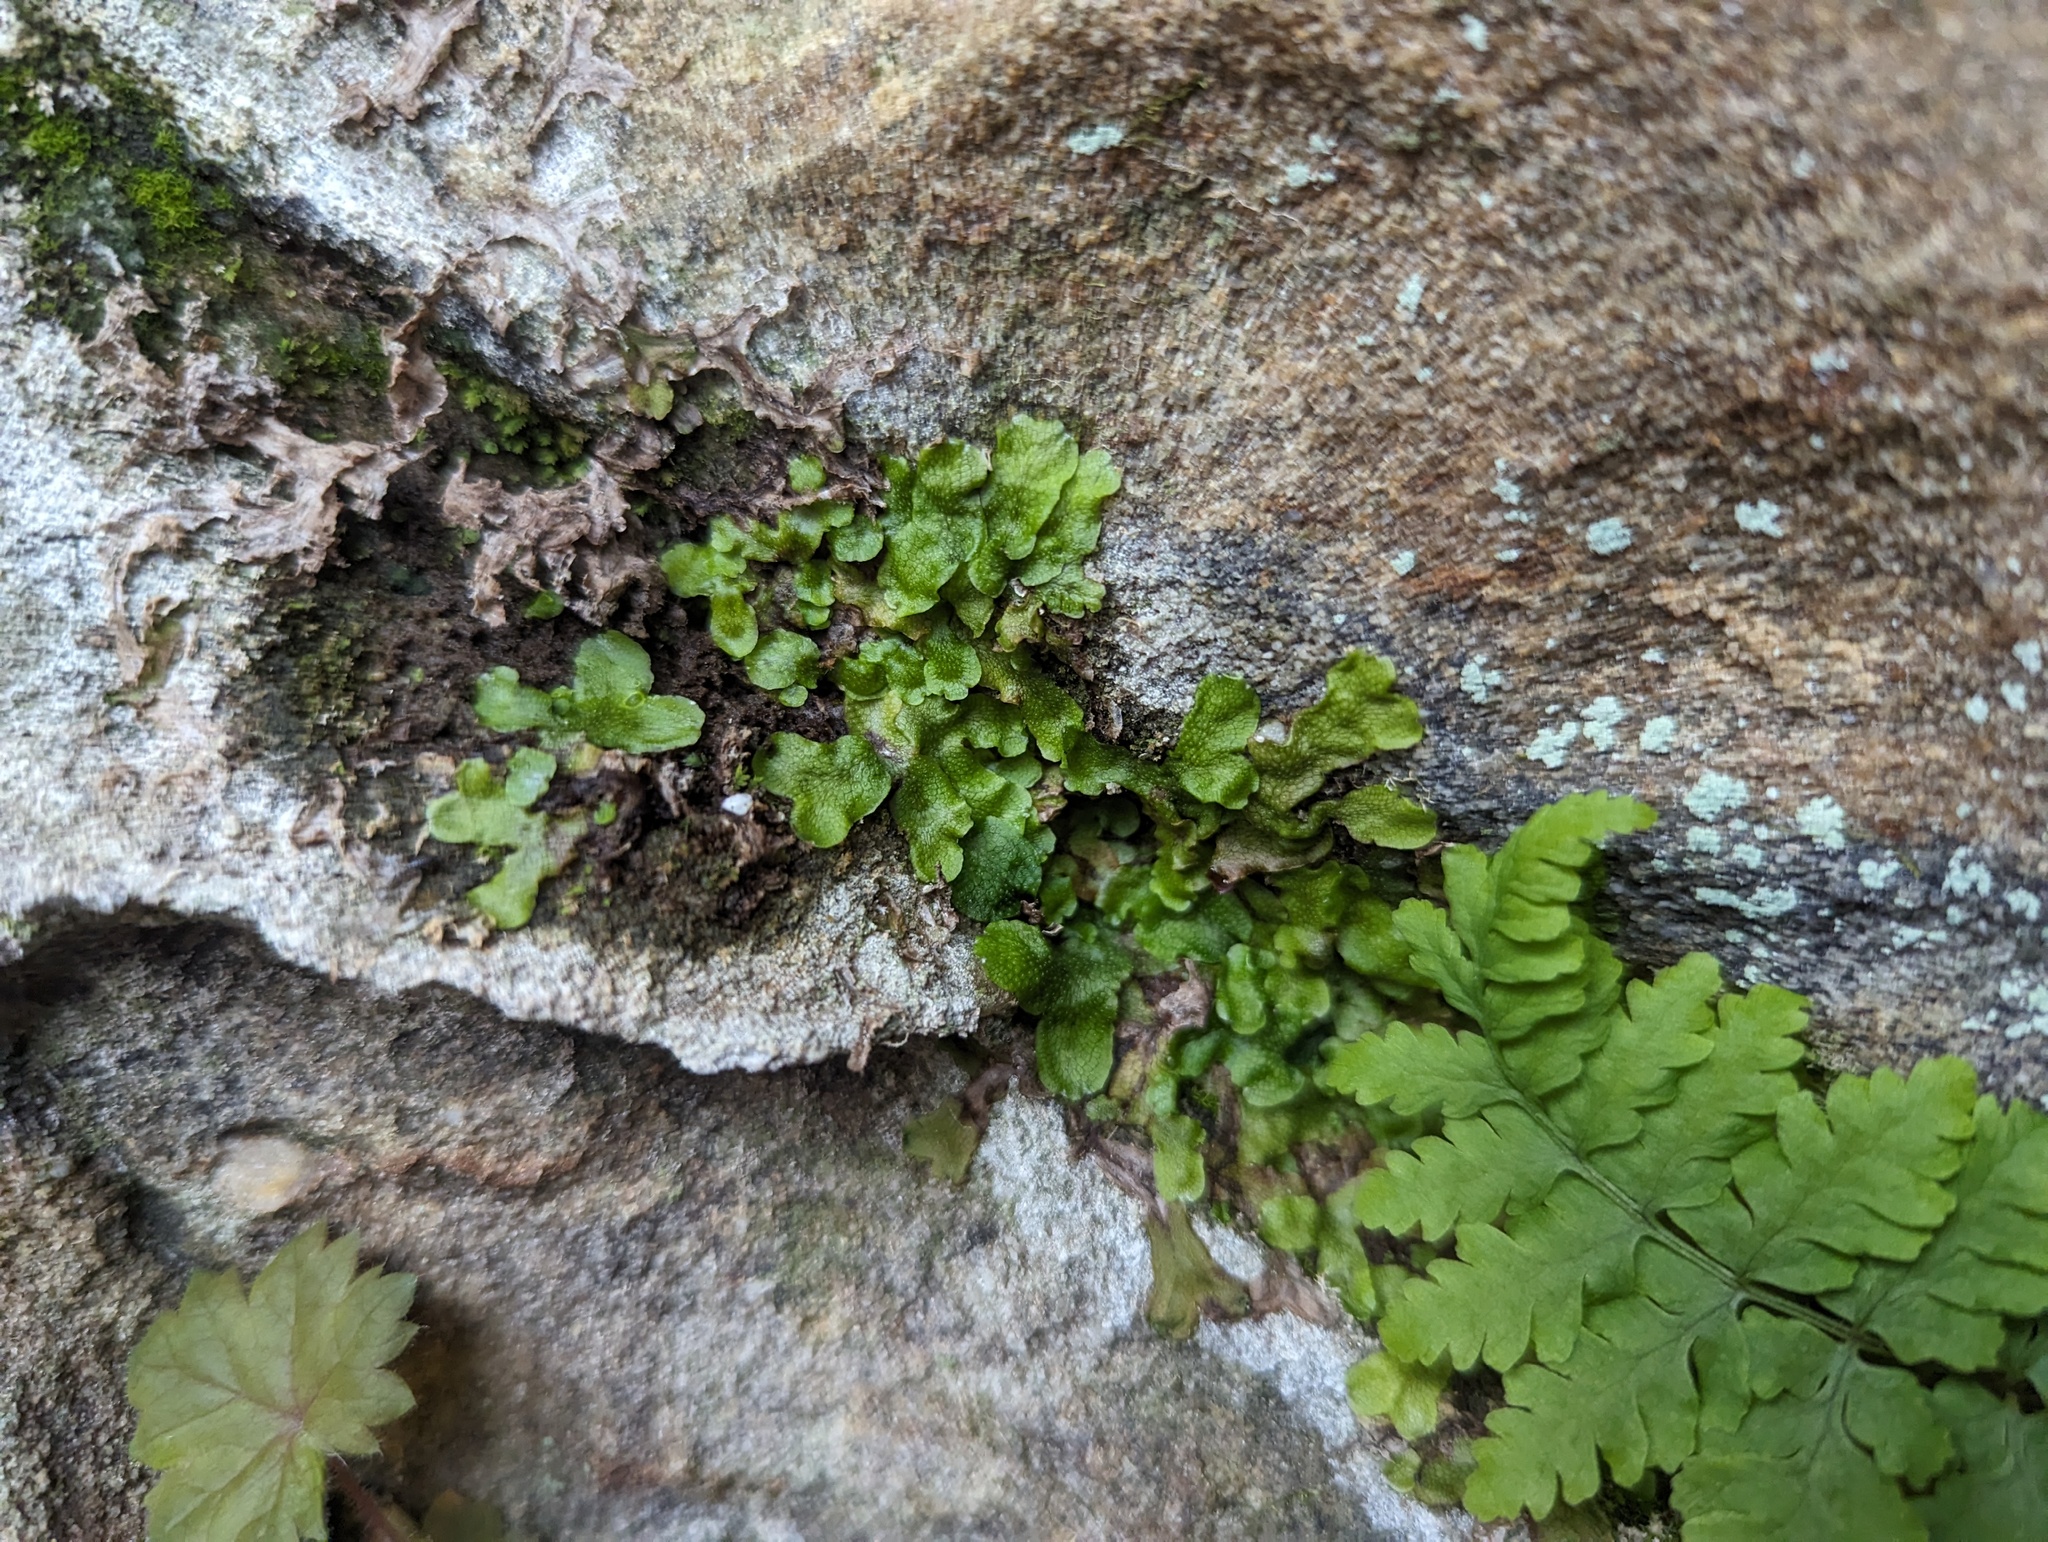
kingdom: Plantae
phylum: Marchantiophyta
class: Marchantiopsida
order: Marchantiales
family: Conocephalaceae
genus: Conocephalum
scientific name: Conocephalum salebrosum
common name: Cat-tongue liverwort
